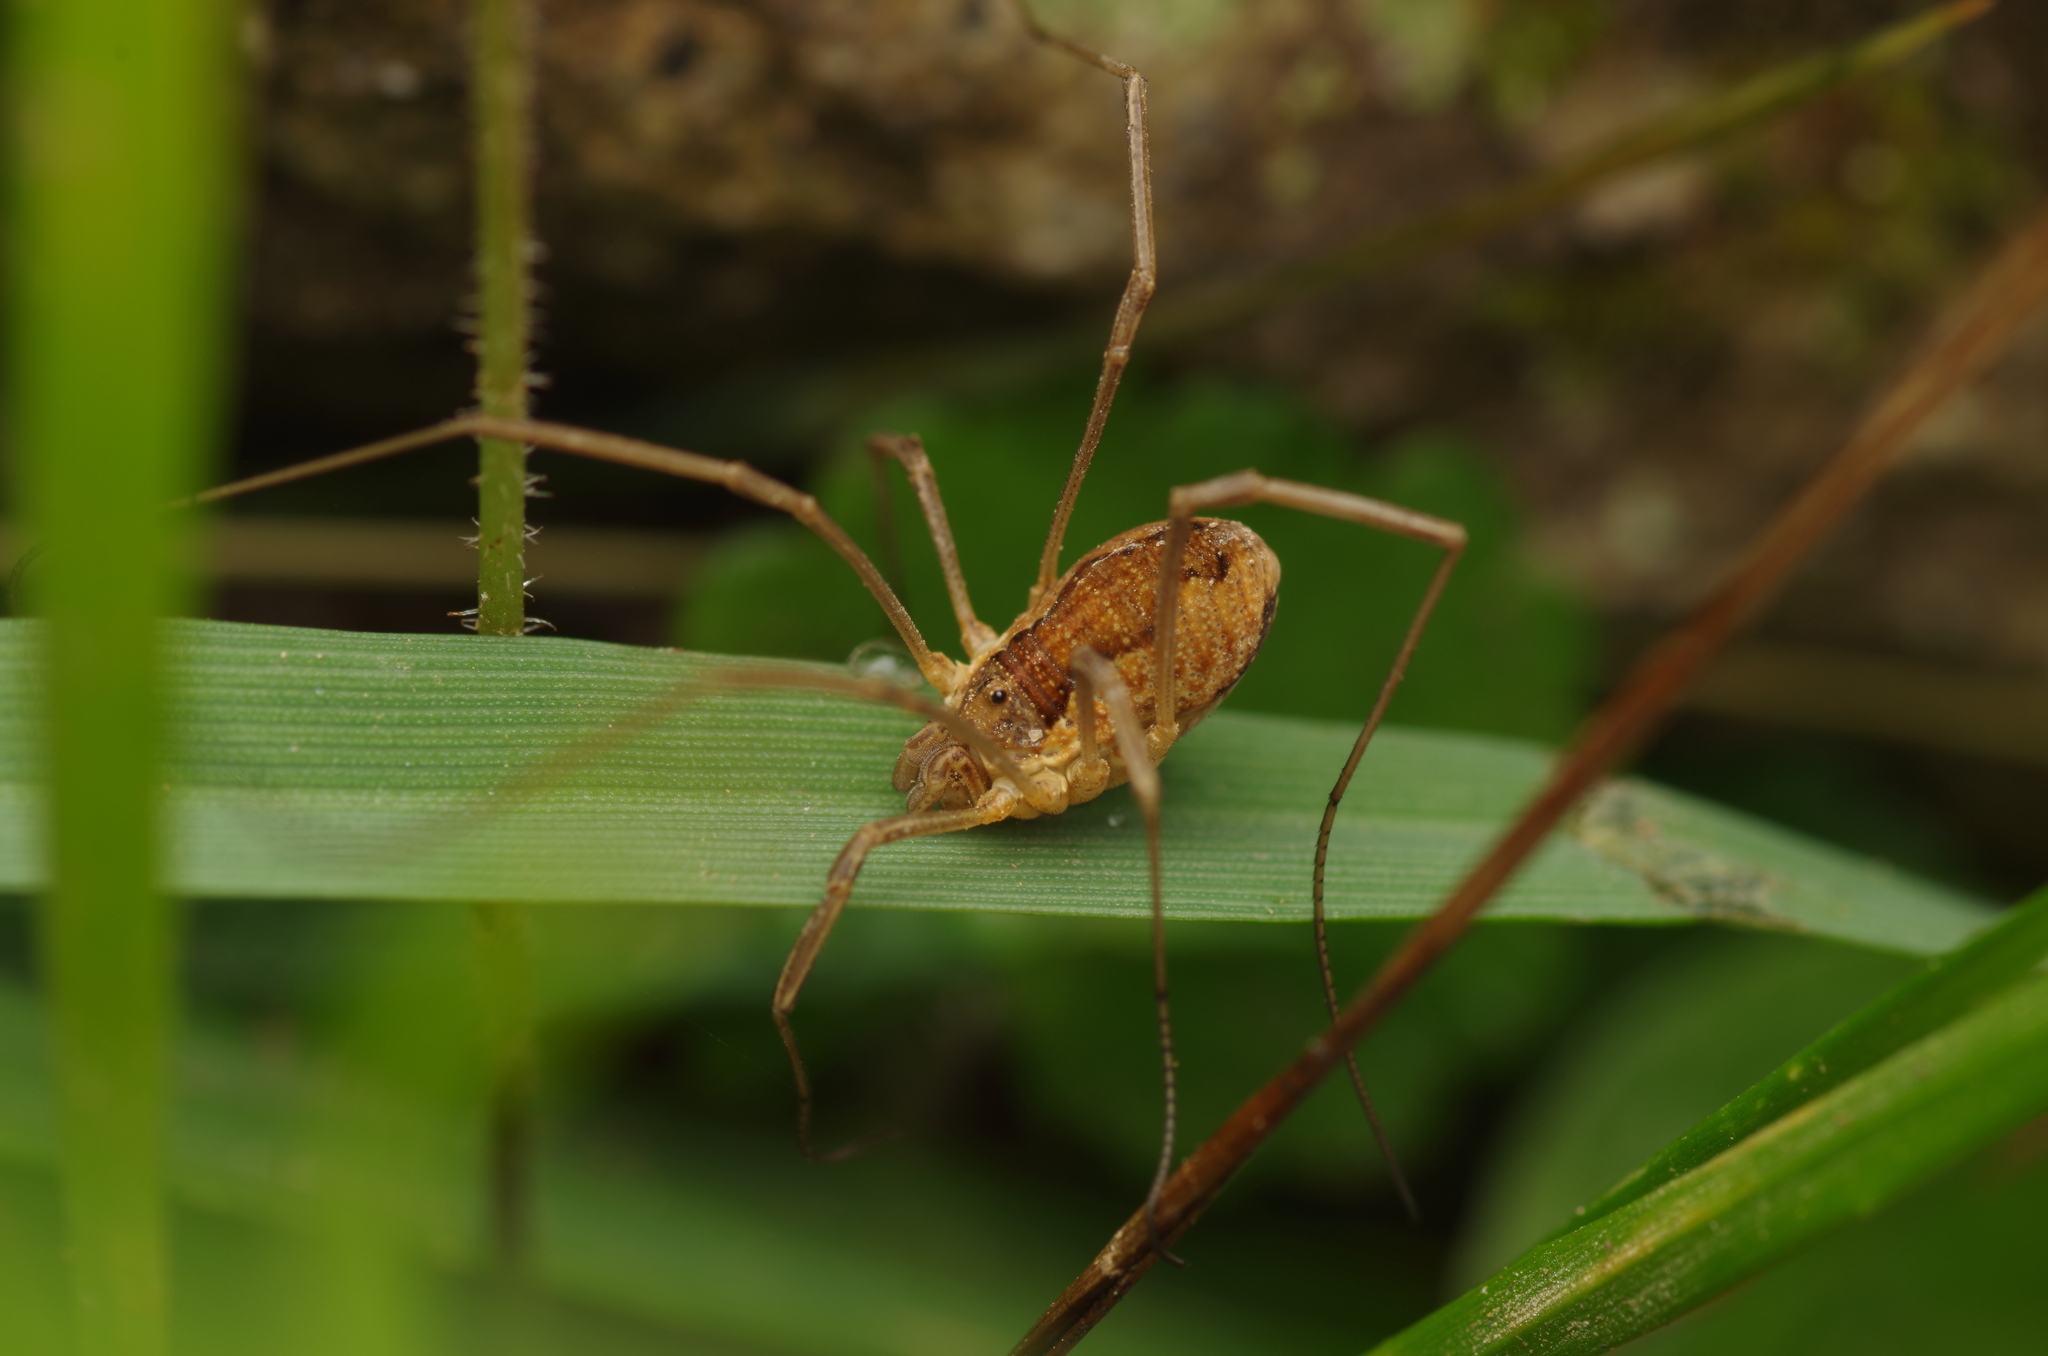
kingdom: Animalia
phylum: Arthropoda
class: Arachnida
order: Opiliones
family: Phalangiidae
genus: Mitopus
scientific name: Mitopus morio
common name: Saddleback harvestman
